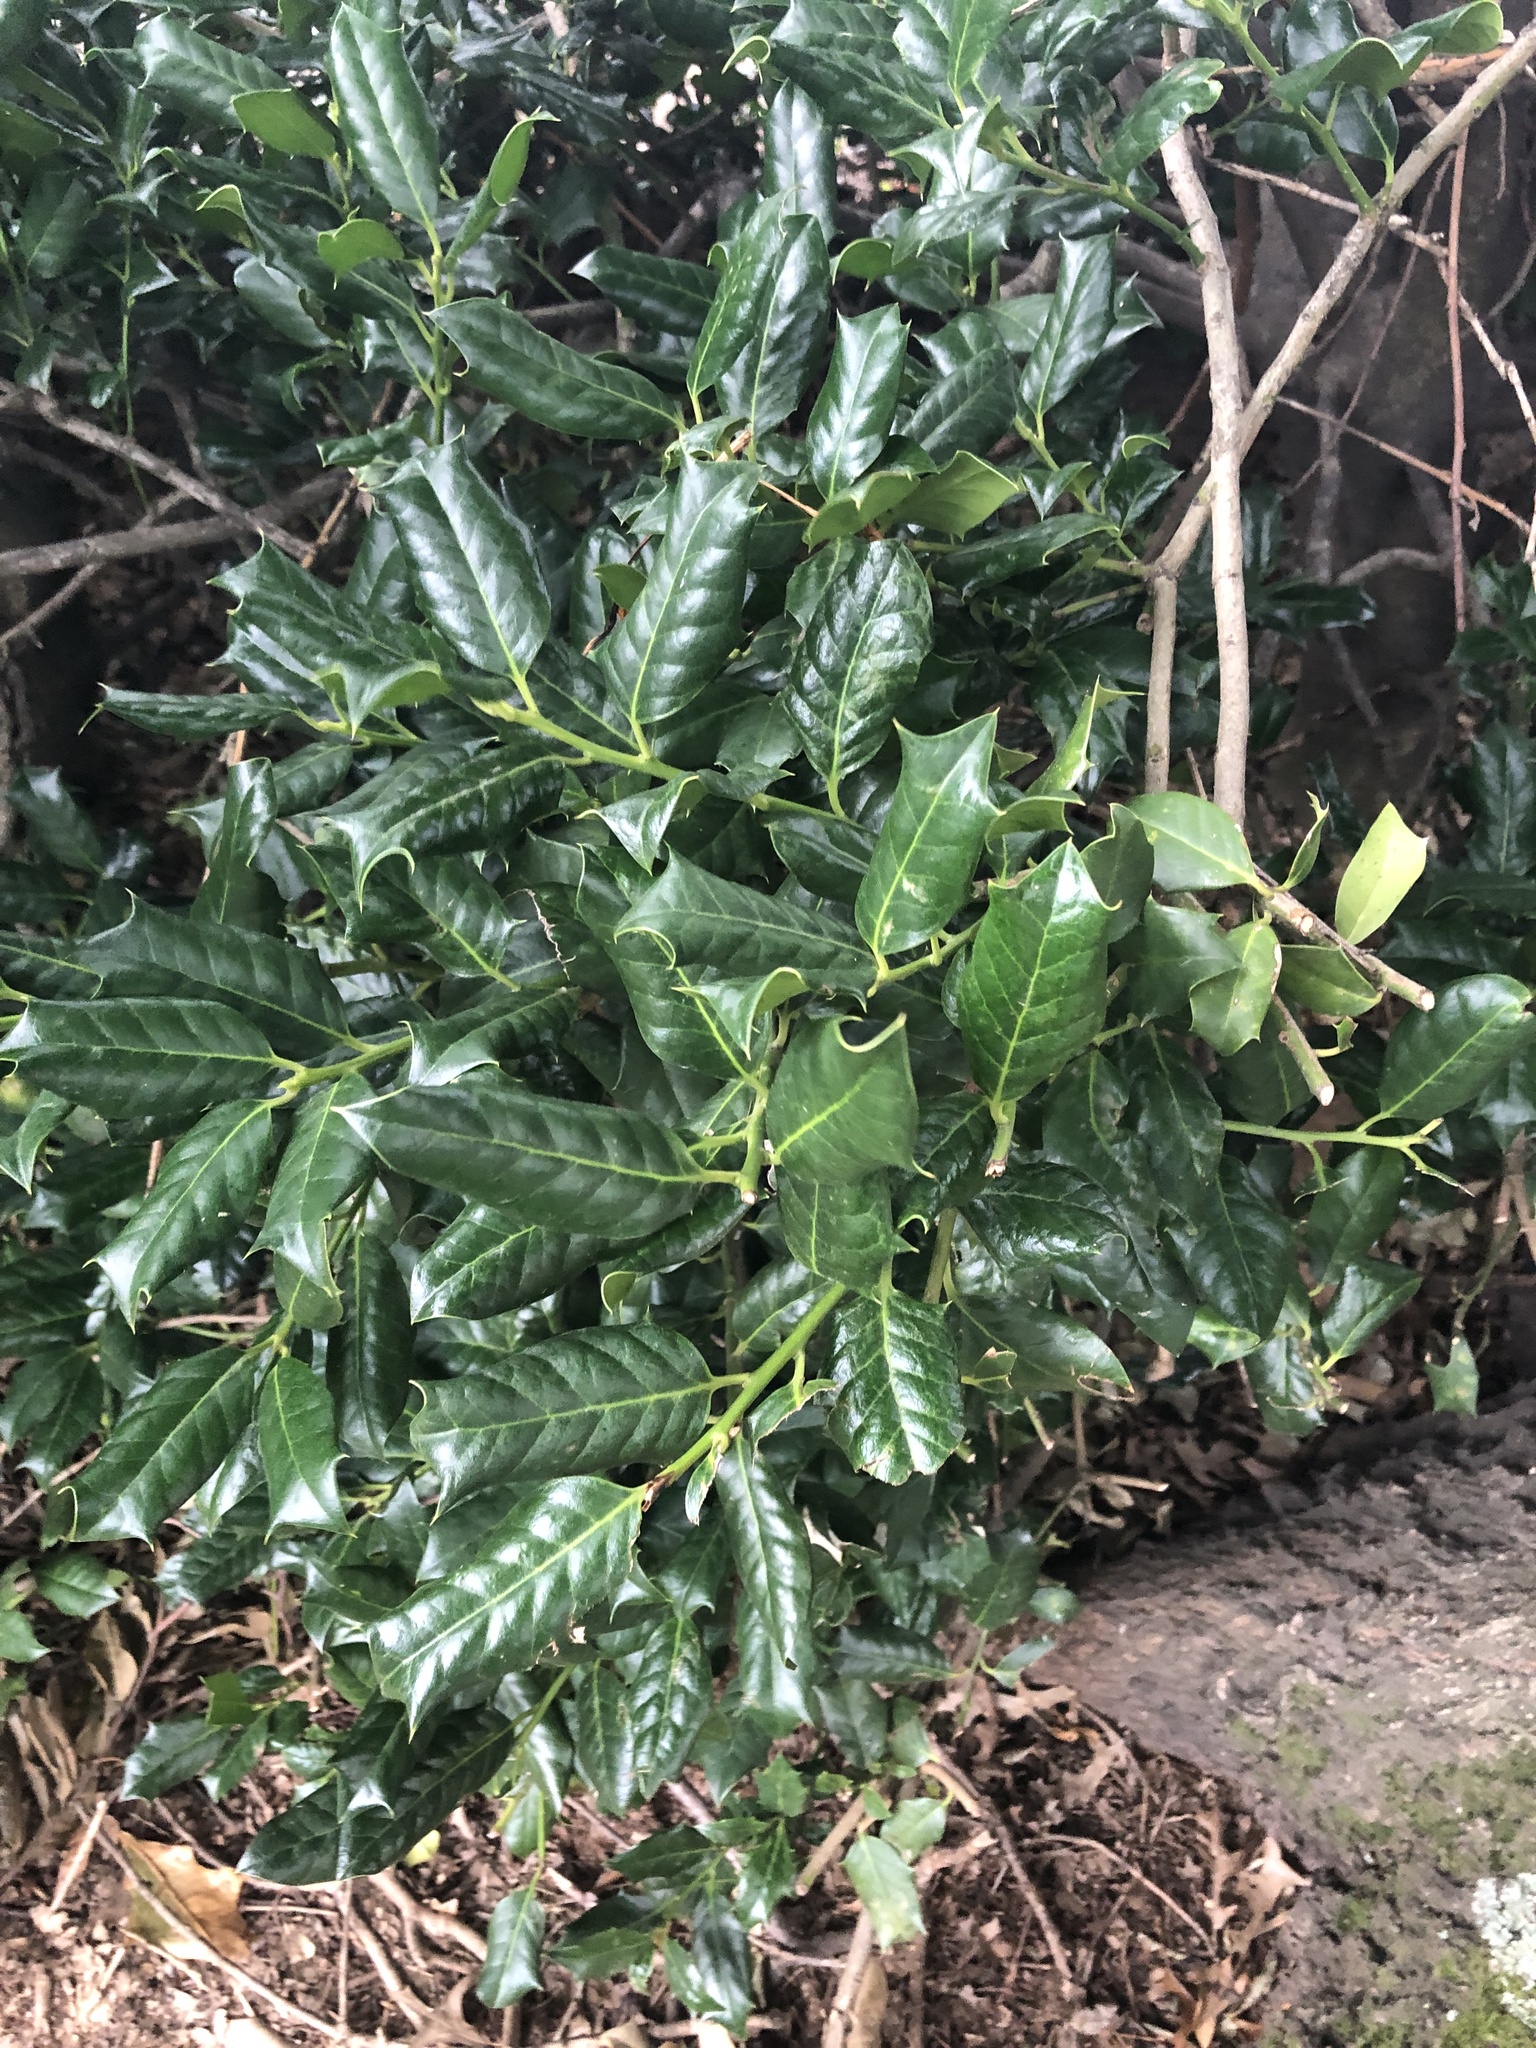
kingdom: Plantae
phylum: Tracheophyta
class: Magnoliopsida
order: Aquifoliales
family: Aquifoliaceae
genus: Ilex
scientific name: Ilex cornuta
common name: Chinese holly
